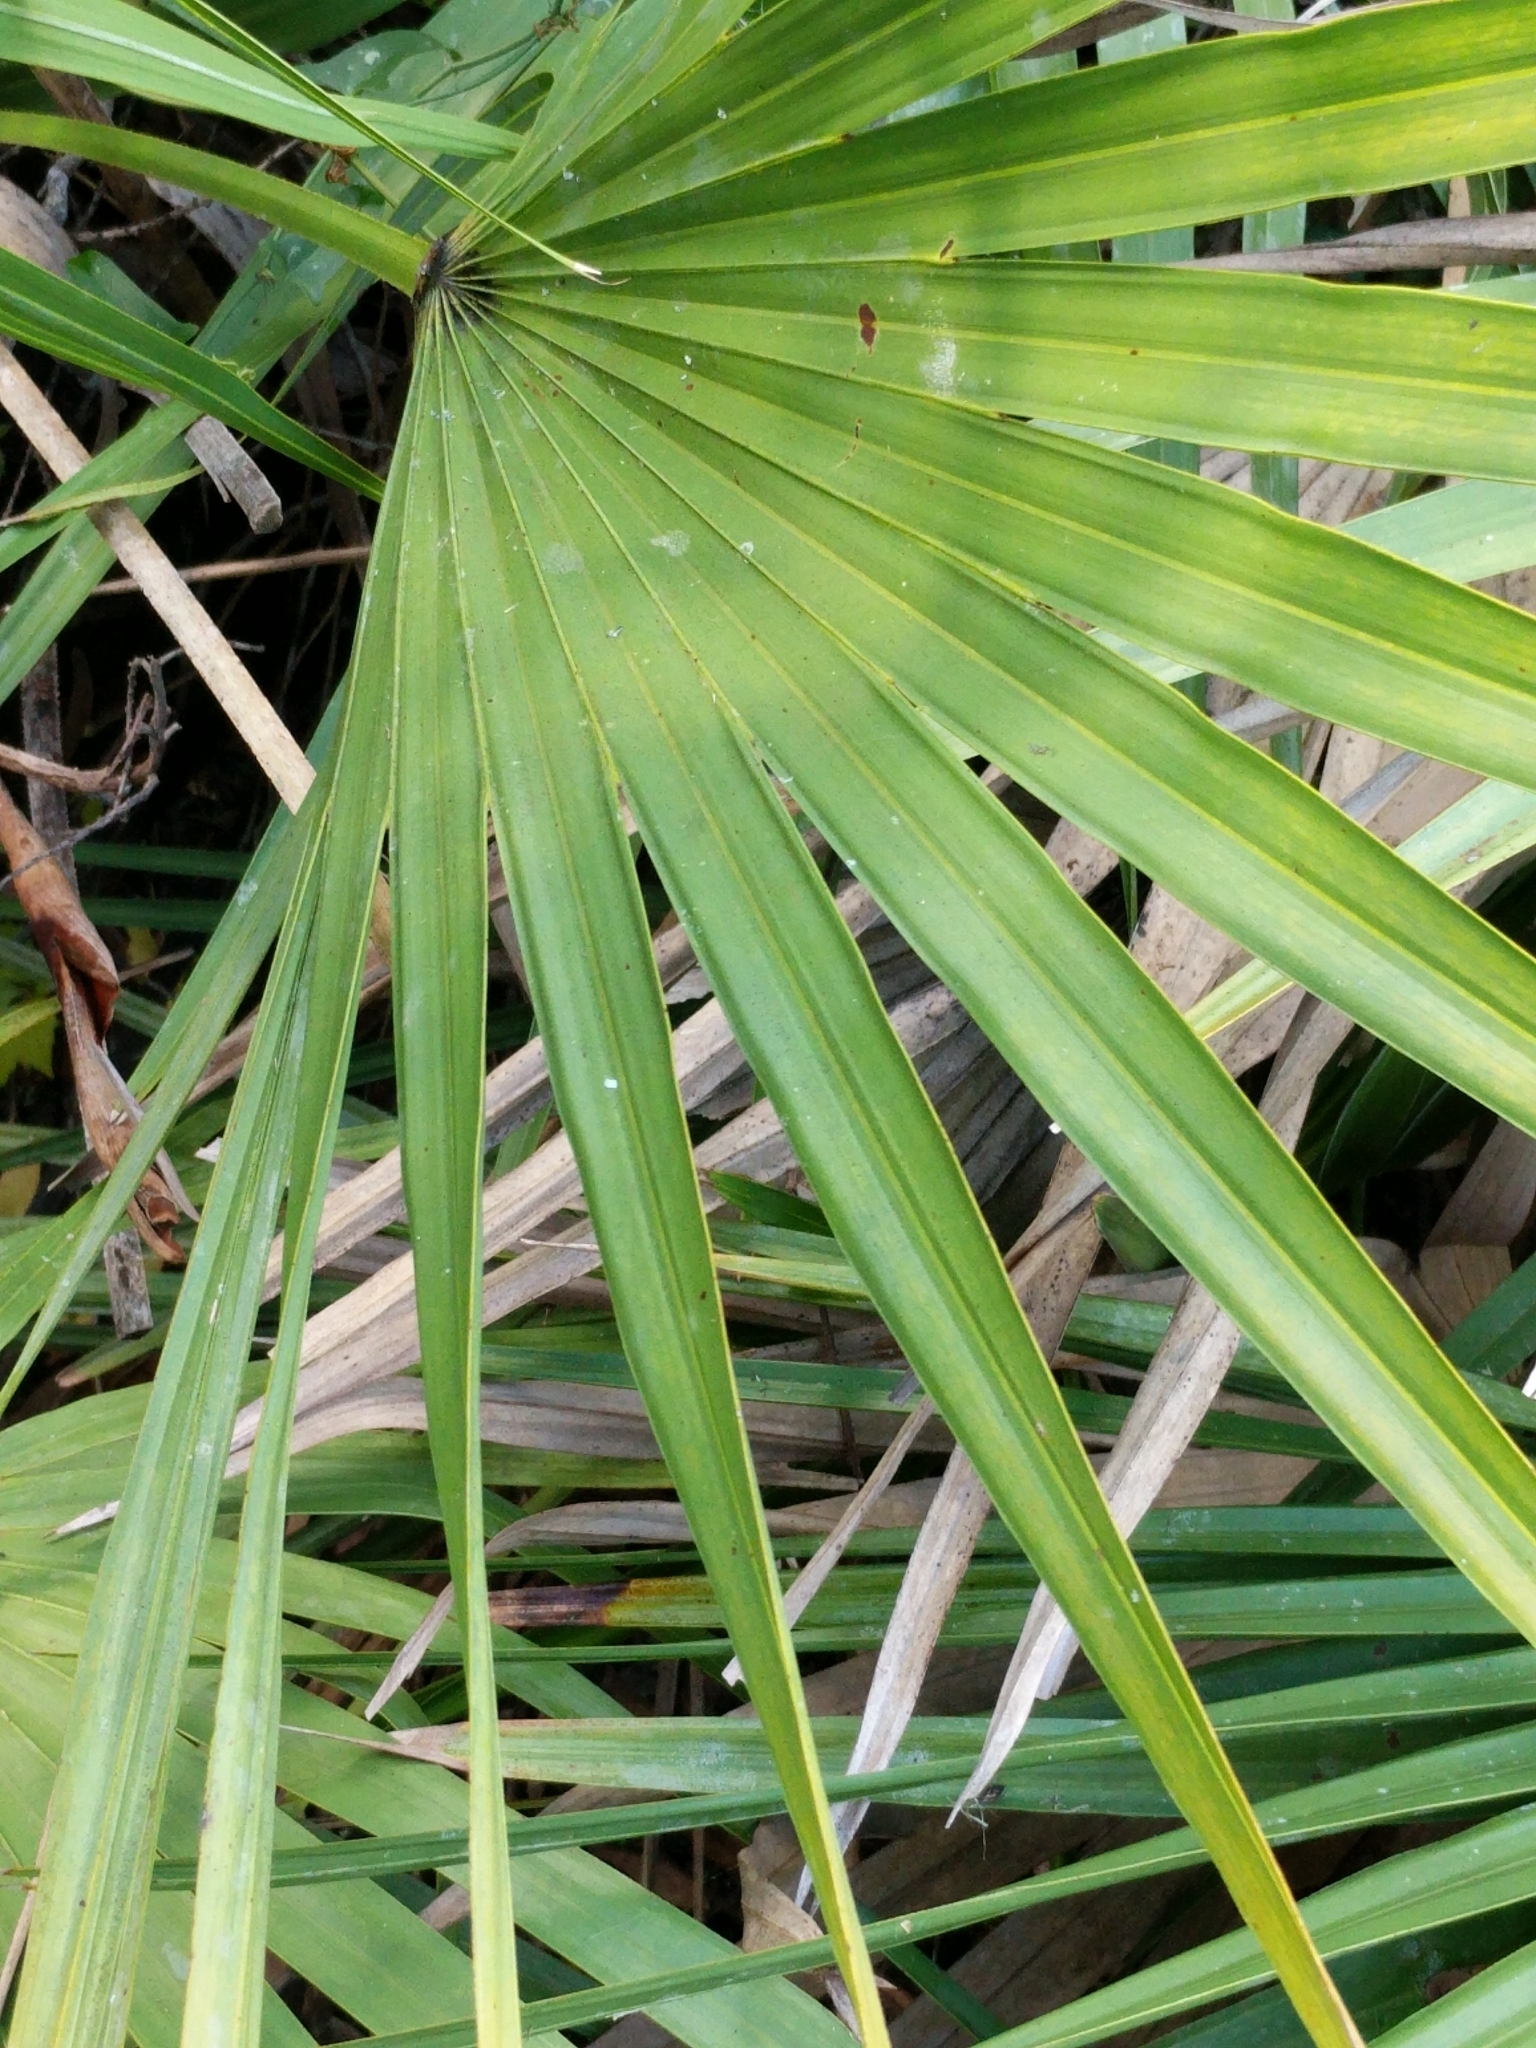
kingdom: Plantae
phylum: Tracheophyta
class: Liliopsida
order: Arecales
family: Arecaceae
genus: Serenoa
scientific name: Serenoa repens
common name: Saw-palmetto
